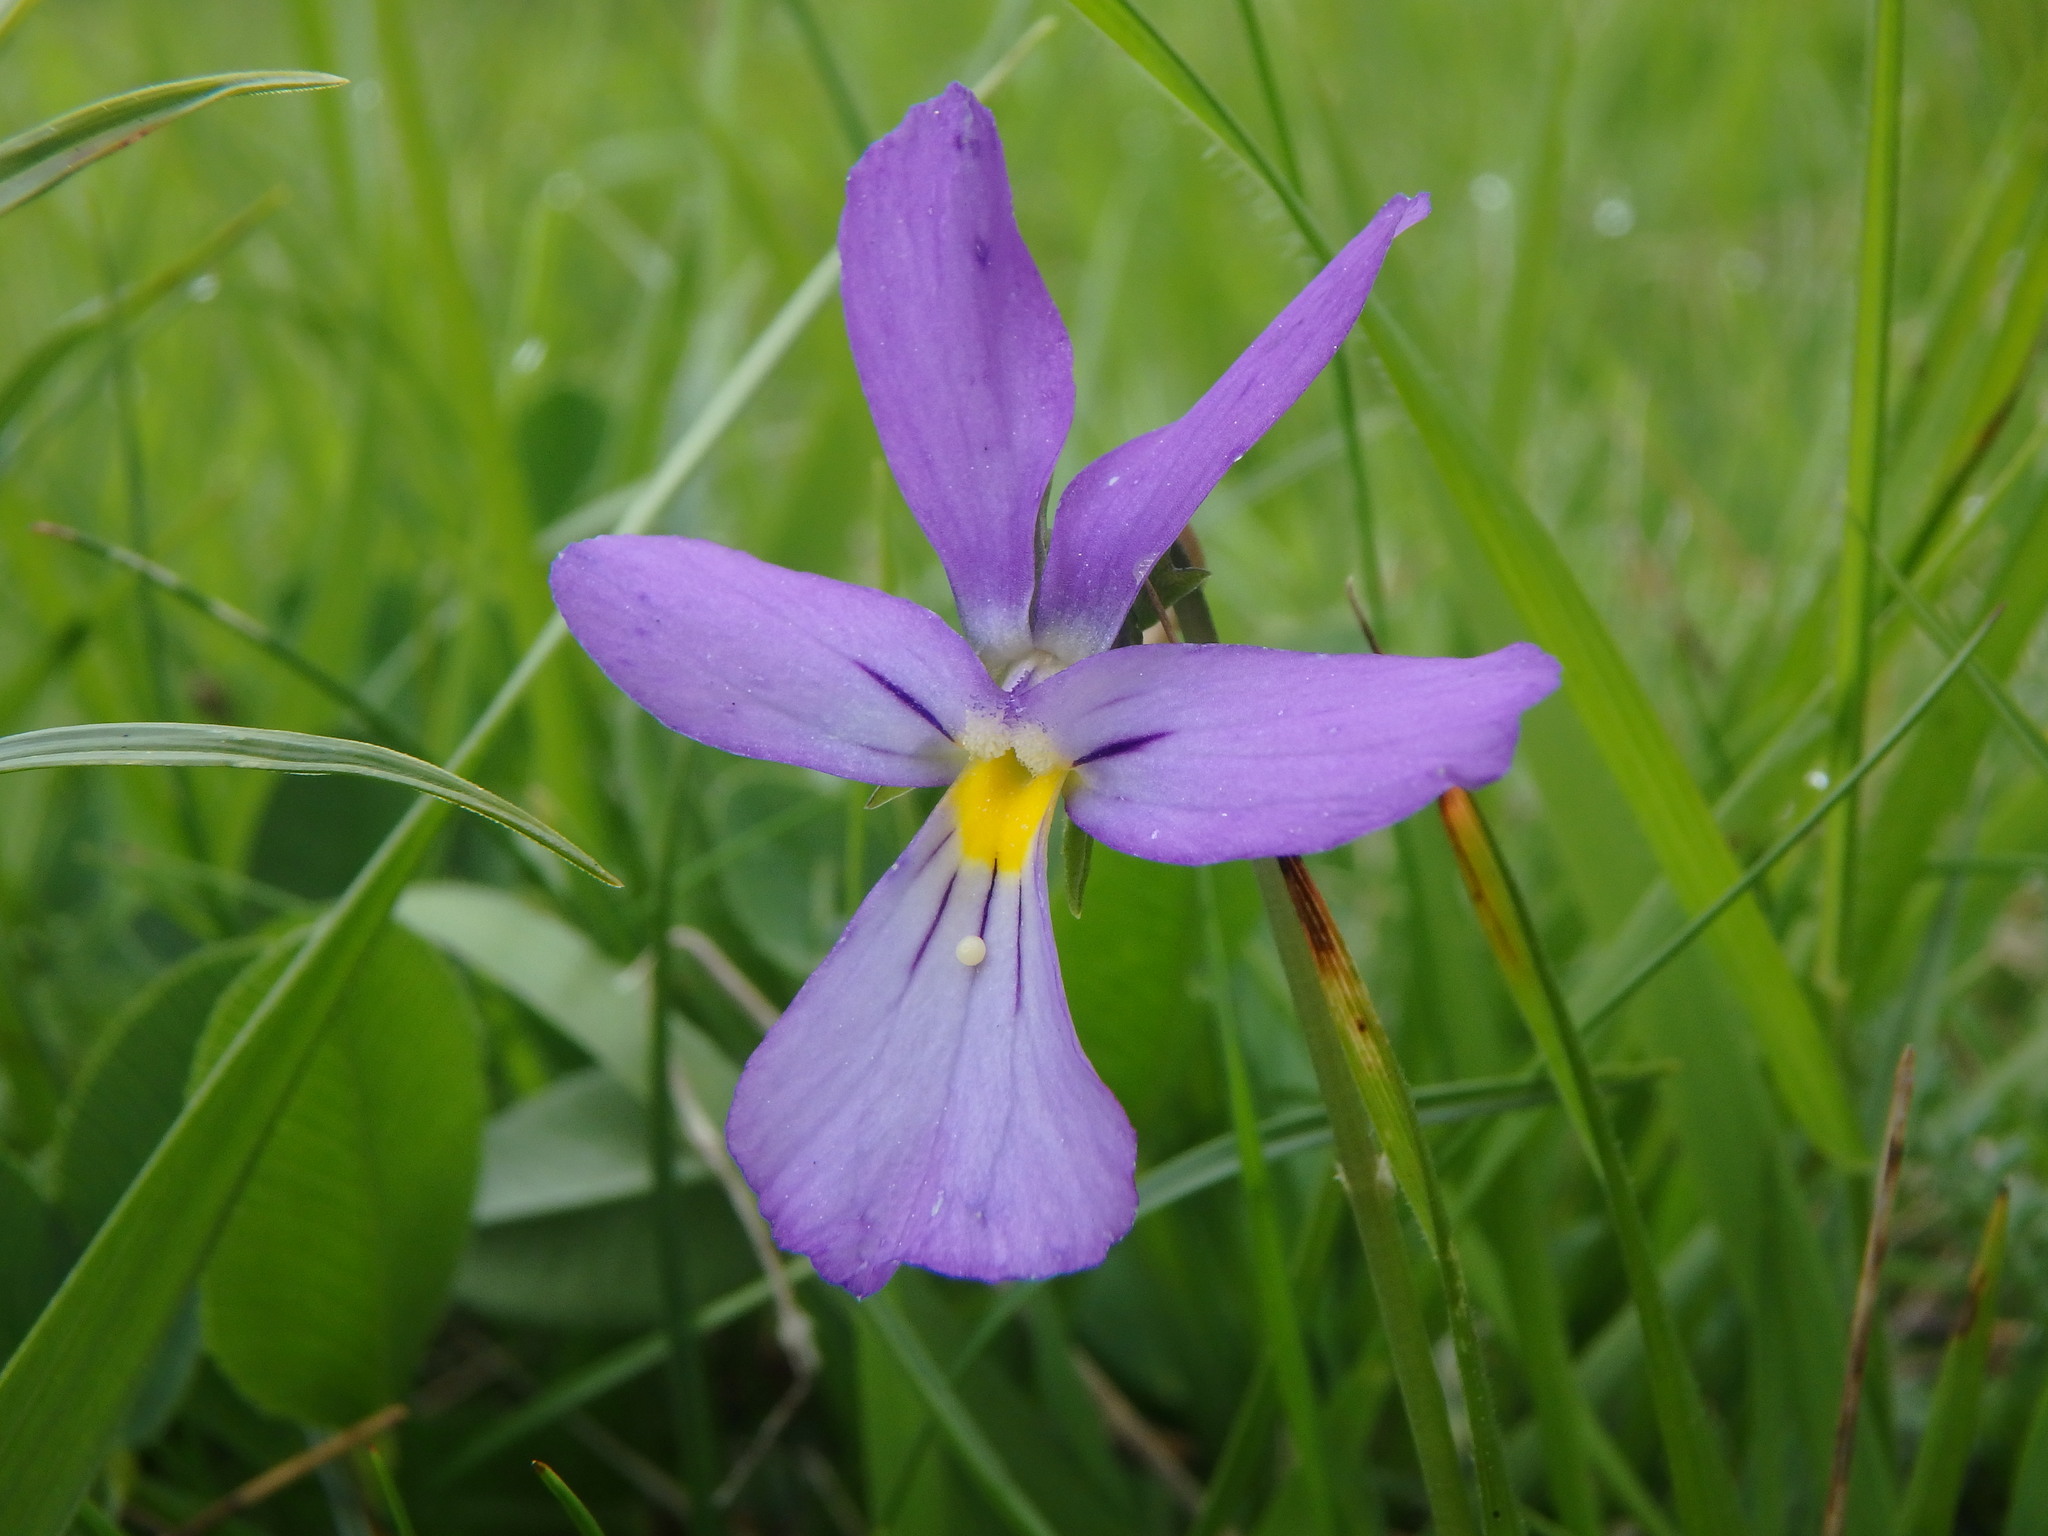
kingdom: Plantae
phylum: Tracheophyta
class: Magnoliopsida
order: Malpighiales
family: Violaceae
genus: Viola
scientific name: Viola calcarata
